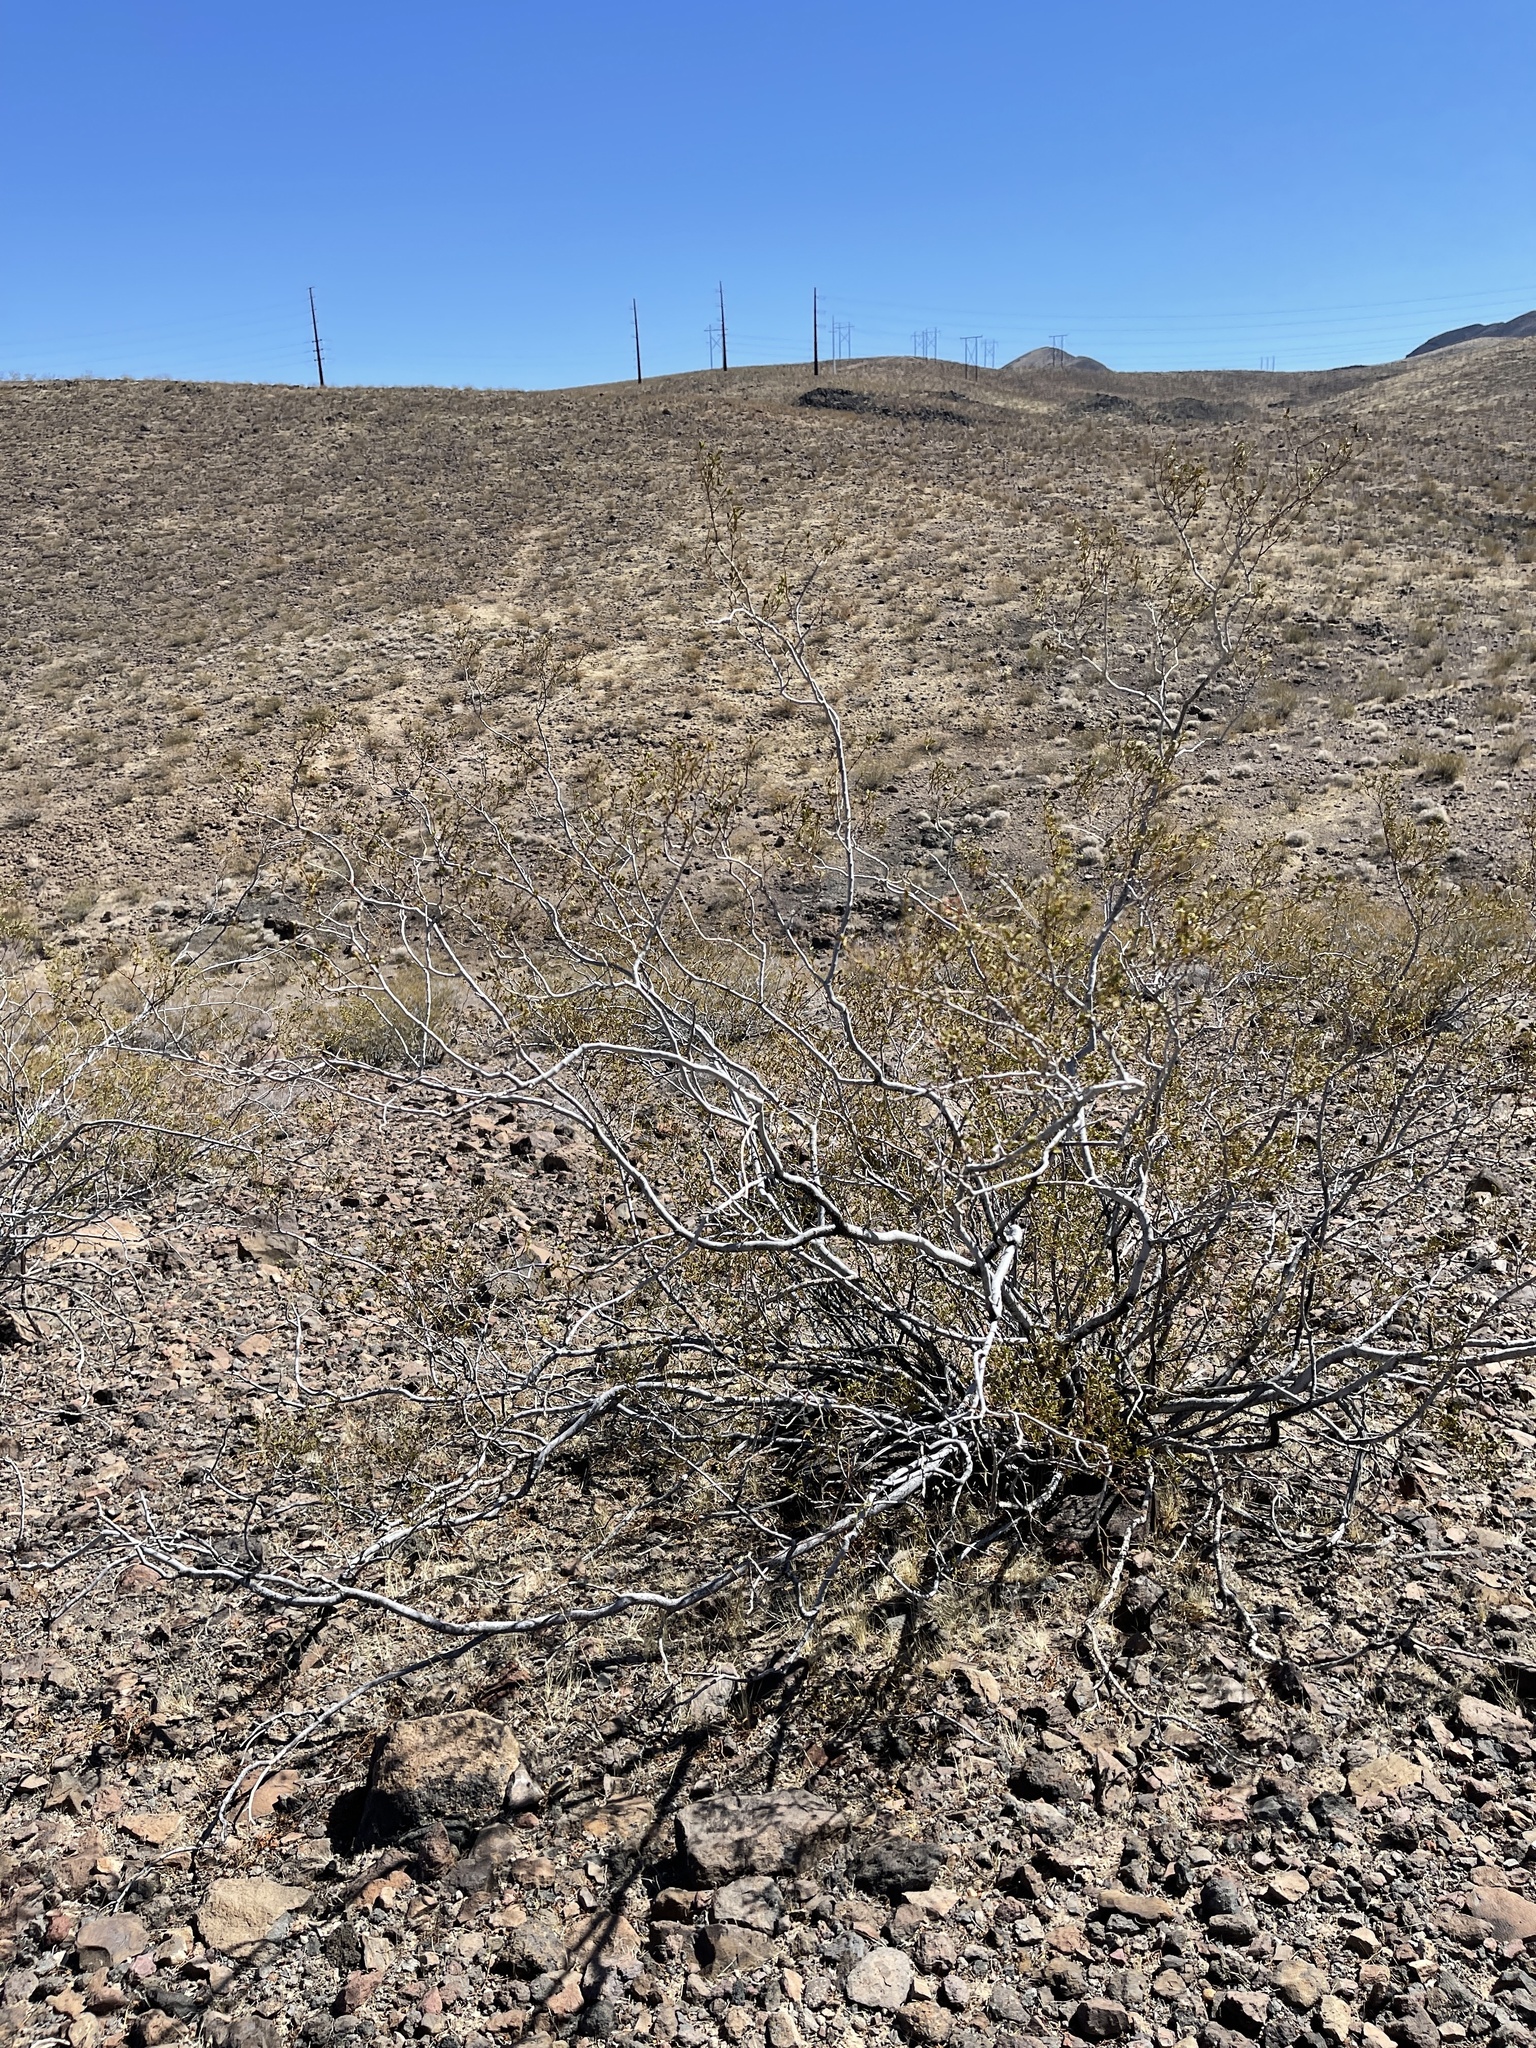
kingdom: Plantae
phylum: Tracheophyta
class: Magnoliopsida
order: Zygophyllales
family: Zygophyllaceae
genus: Larrea
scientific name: Larrea tridentata
